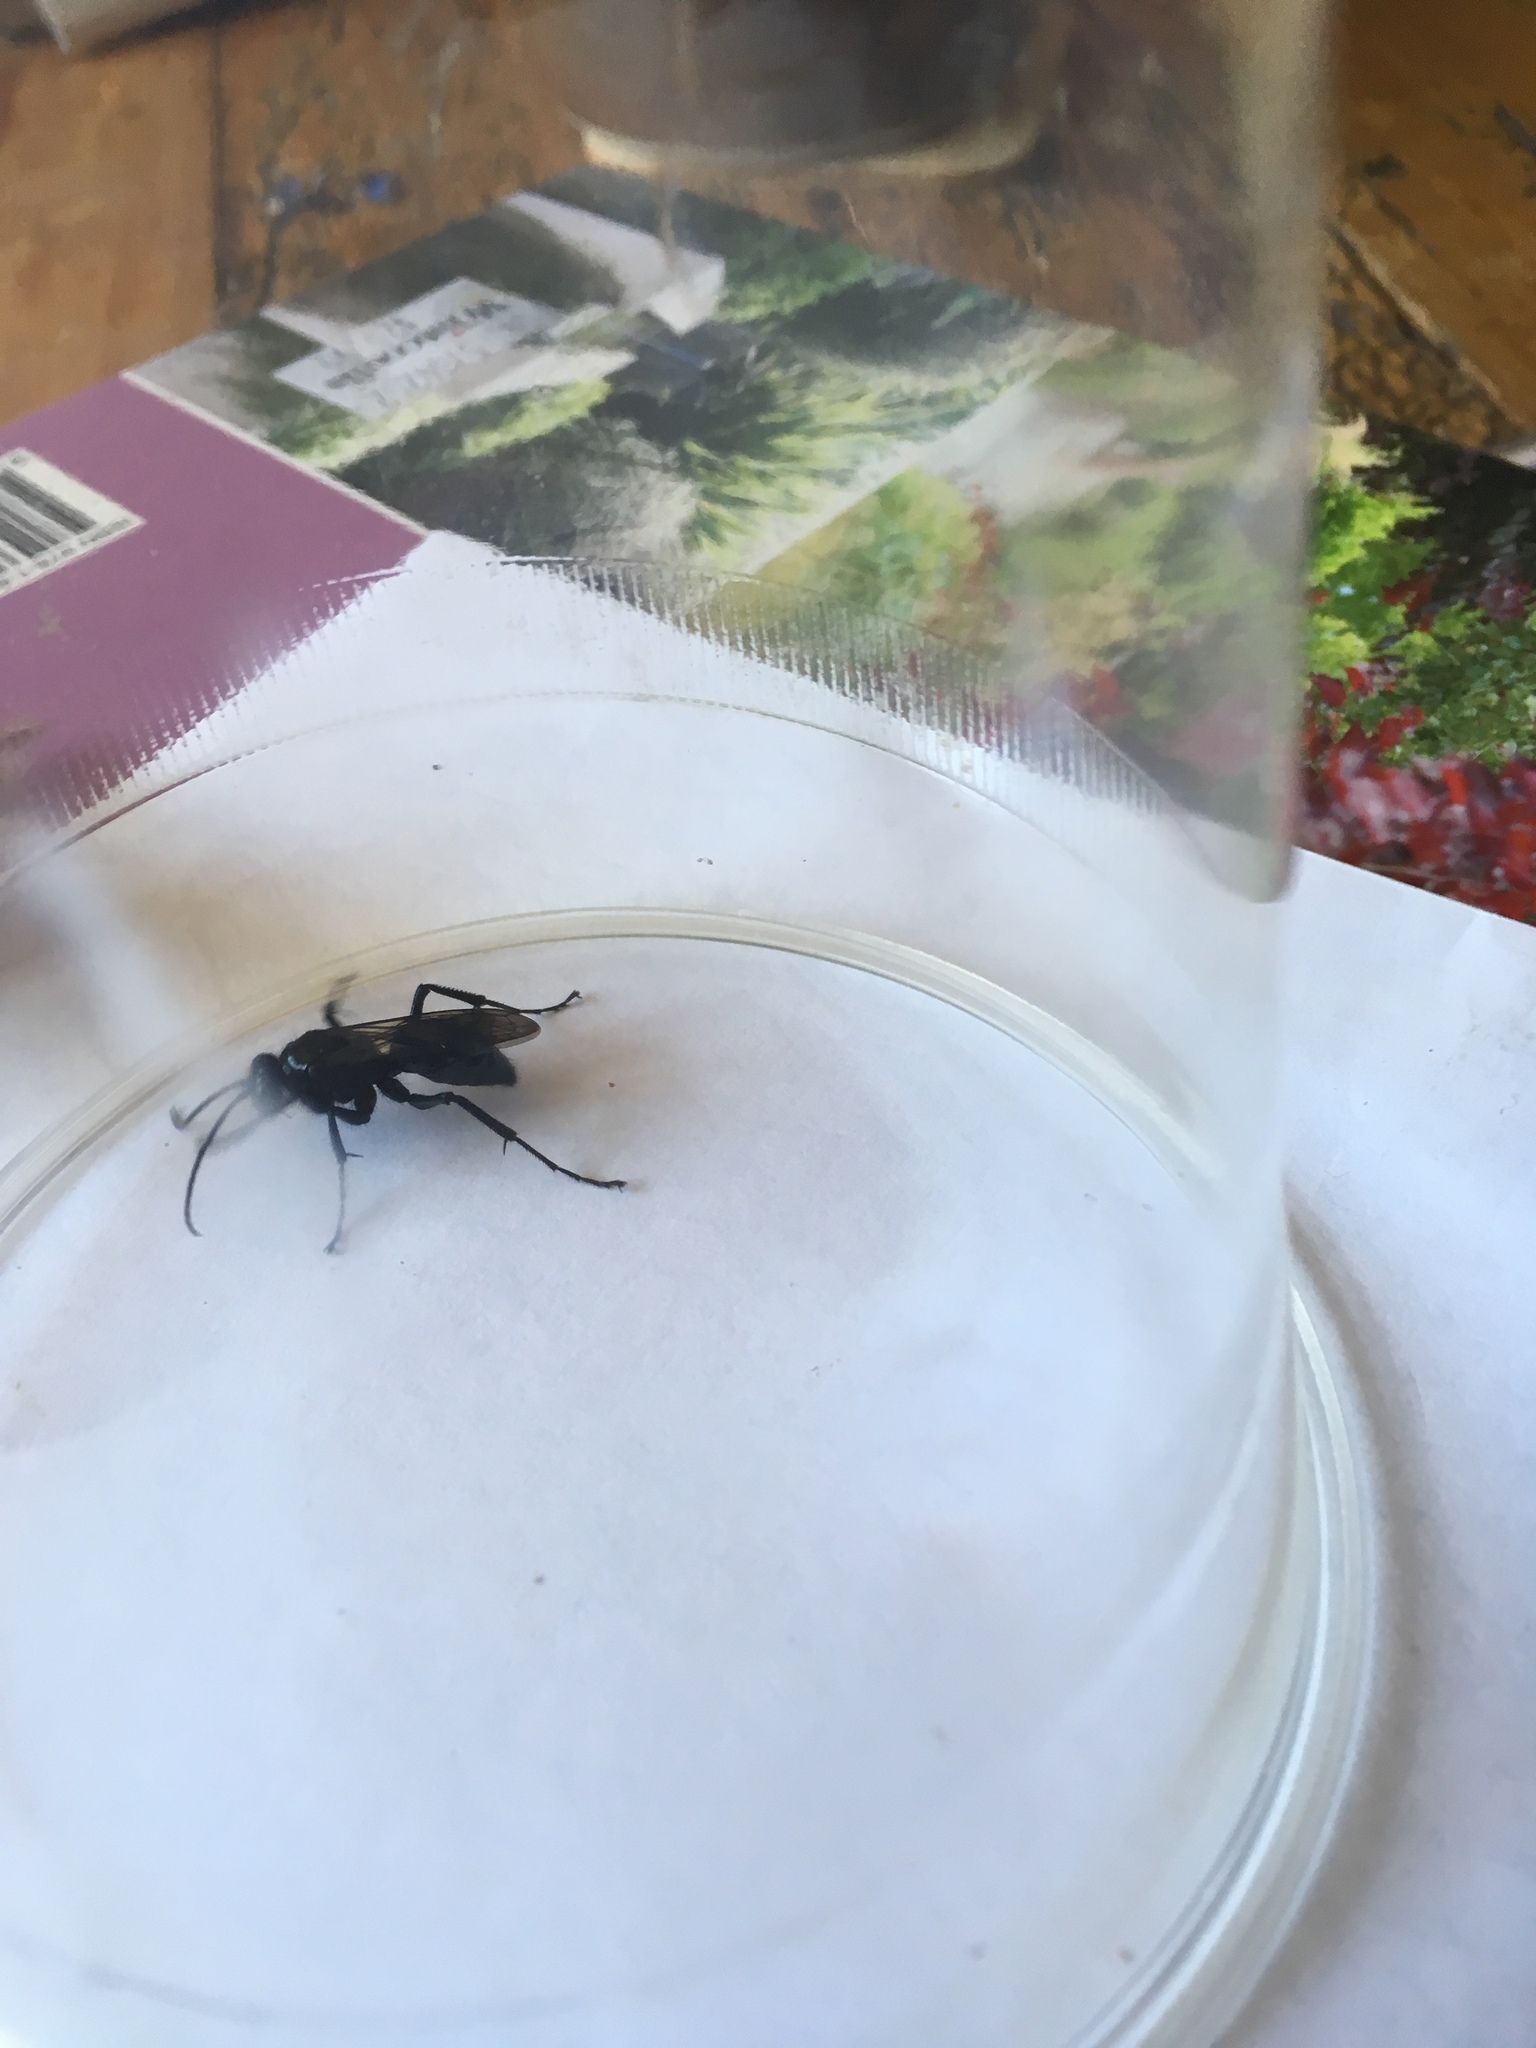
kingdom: Animalia
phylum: Arthropoda
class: Insecta
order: Hymenoptera
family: Pompilidae
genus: Priocnemis
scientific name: Priocnemis monachus
